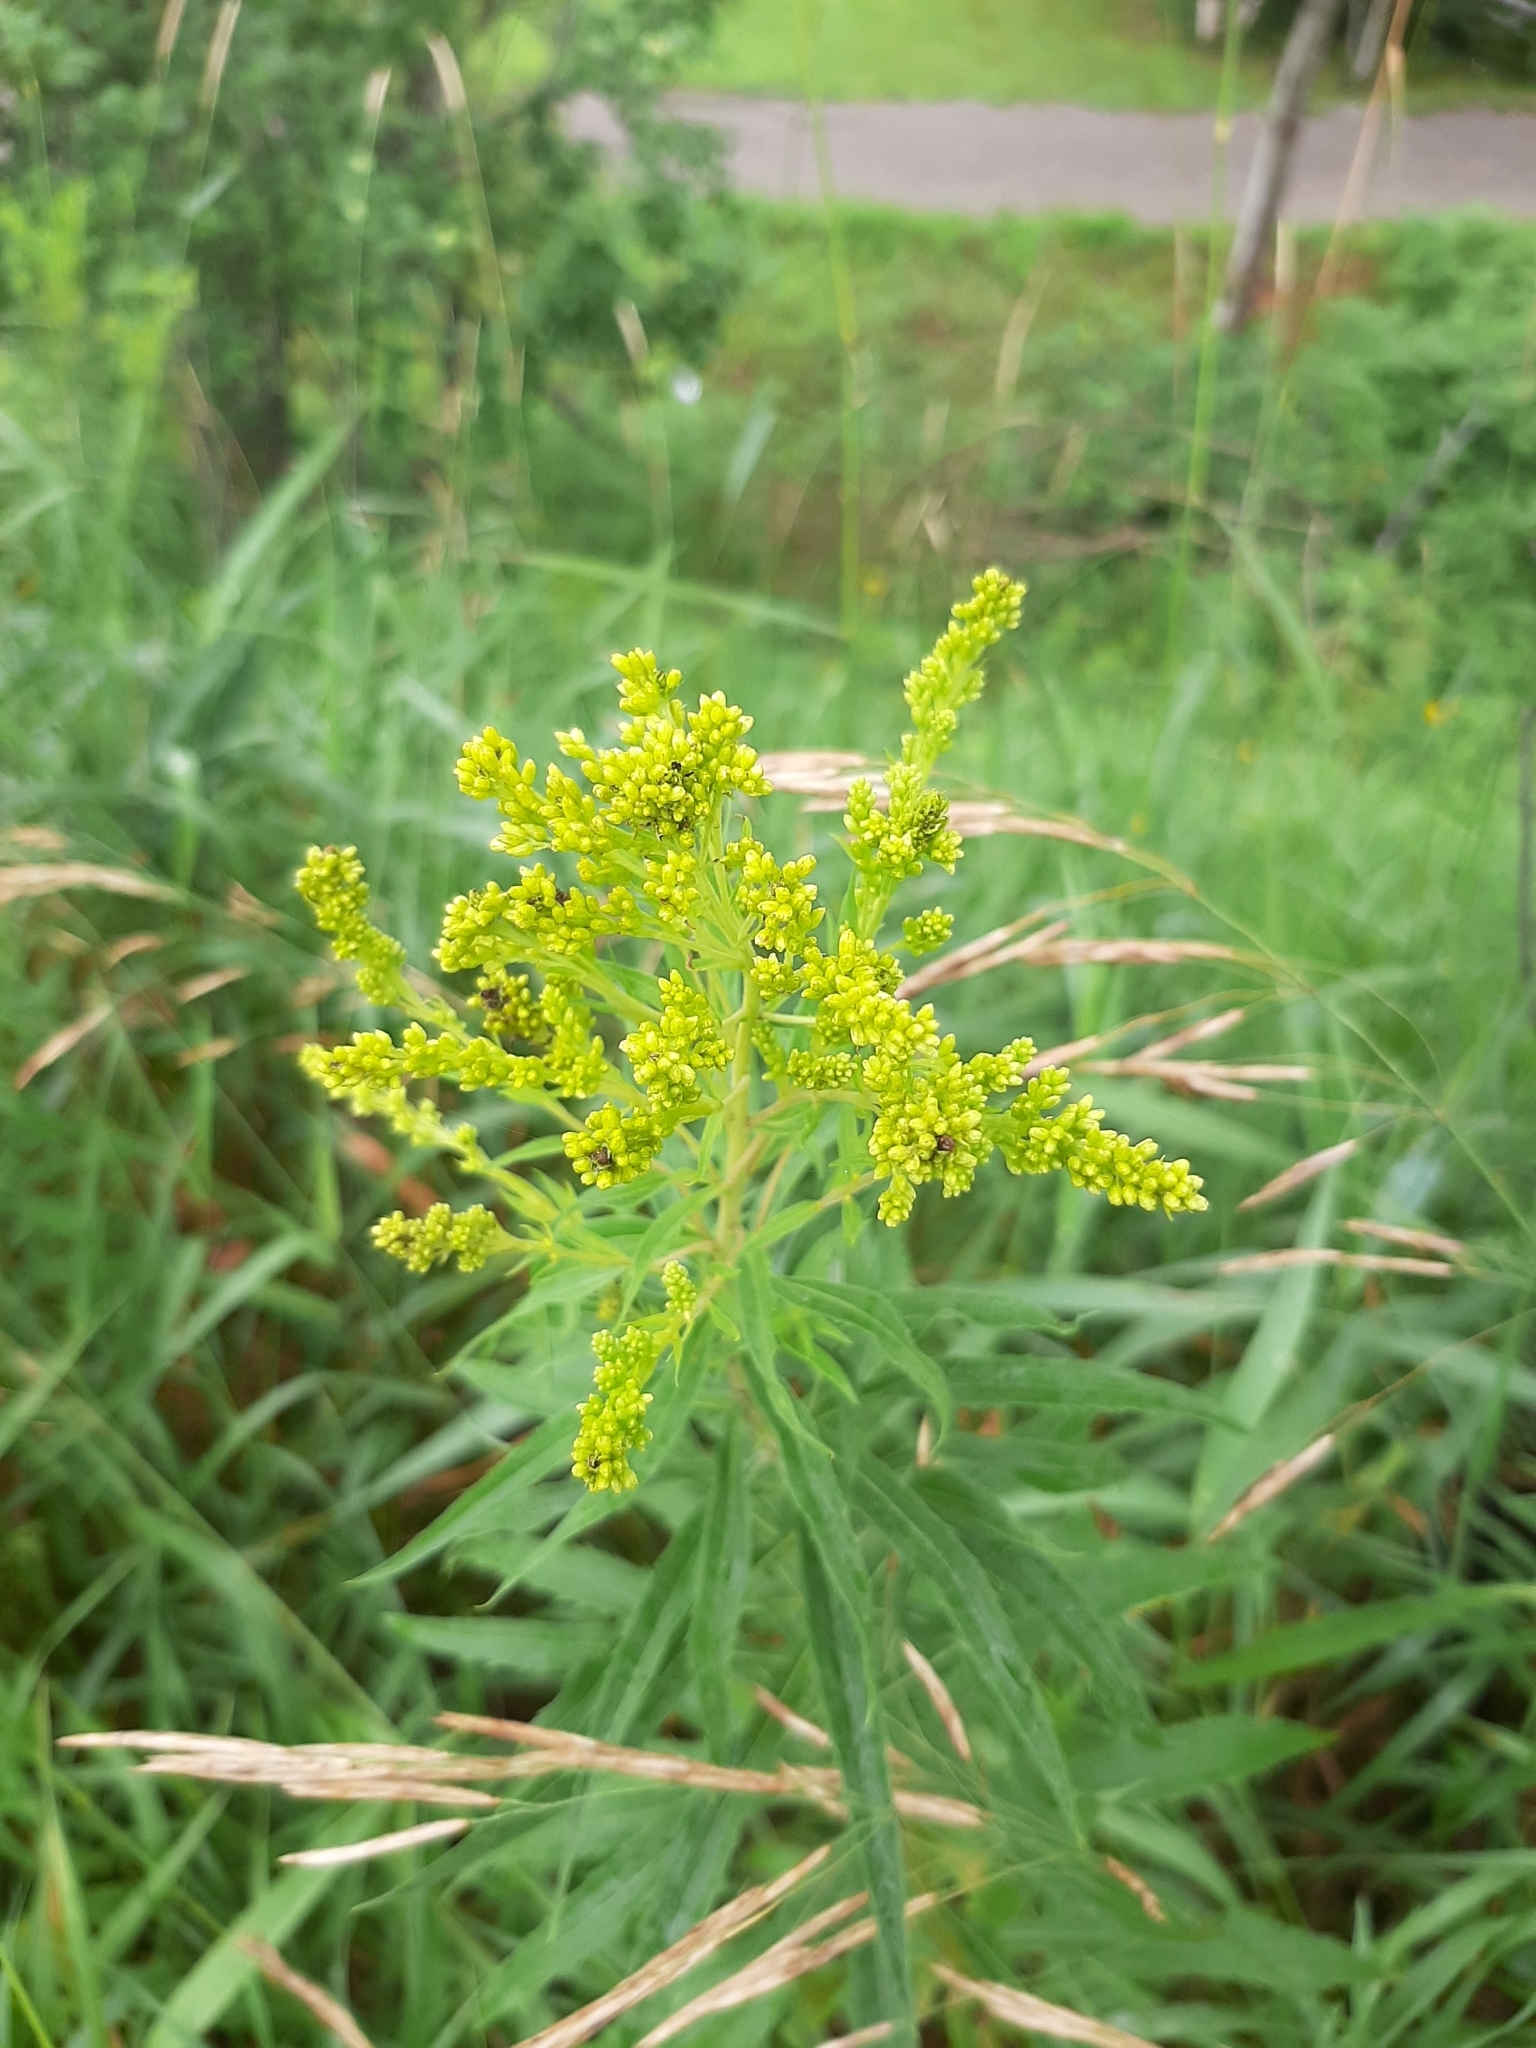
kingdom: Plantae
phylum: Tracheophyta
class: Magnoliopsida
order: Asterales
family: Asteraceae
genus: Solidago
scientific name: Solidago canadensis
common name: Canada goldenrod
